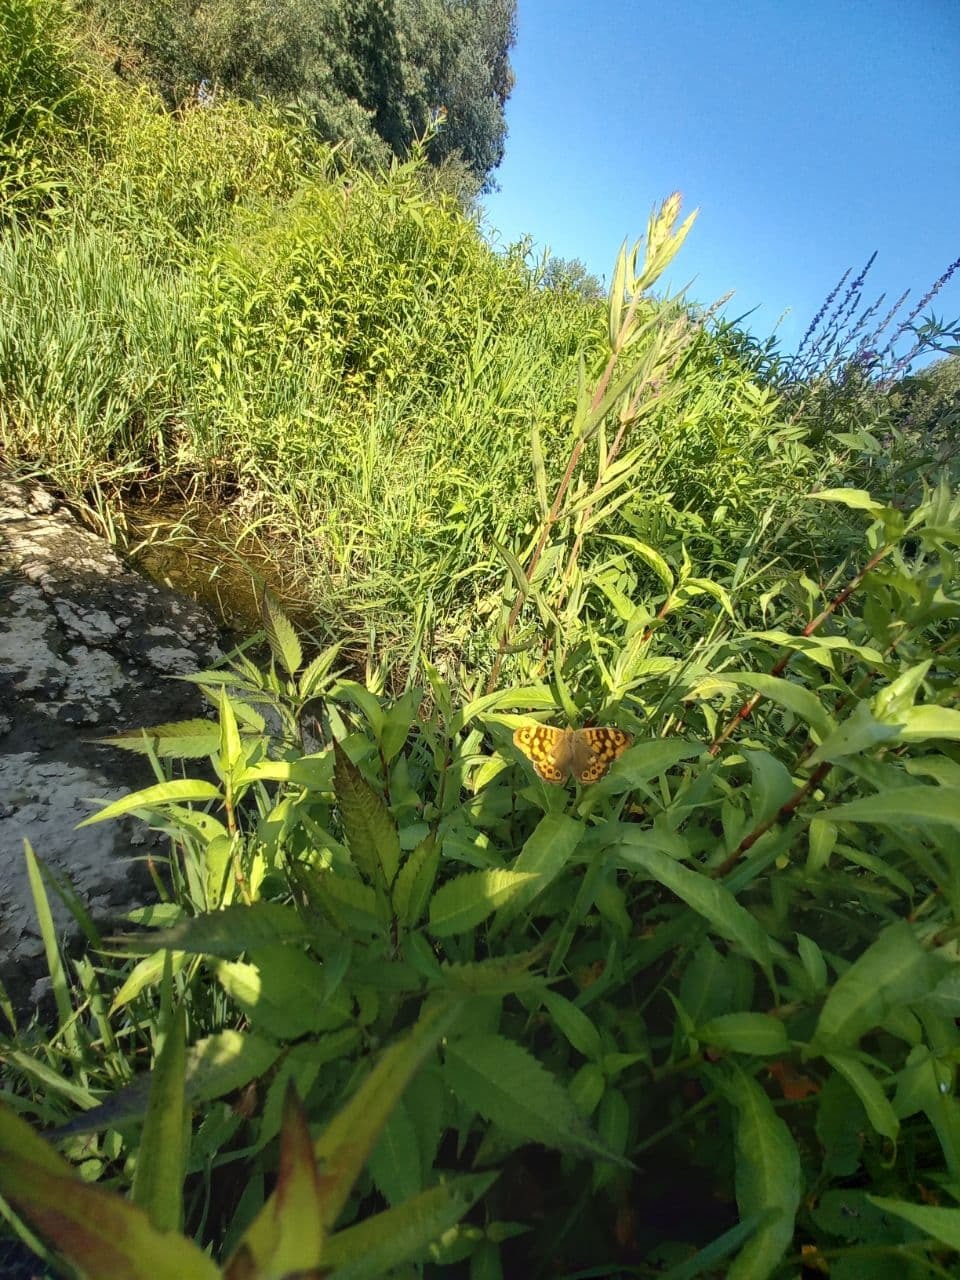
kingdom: Animalia
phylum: Arthropoda
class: Insecta
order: Lepidoptera
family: Nymphalidae
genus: Pararge
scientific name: Pararge aegeria
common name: Speckled wood
